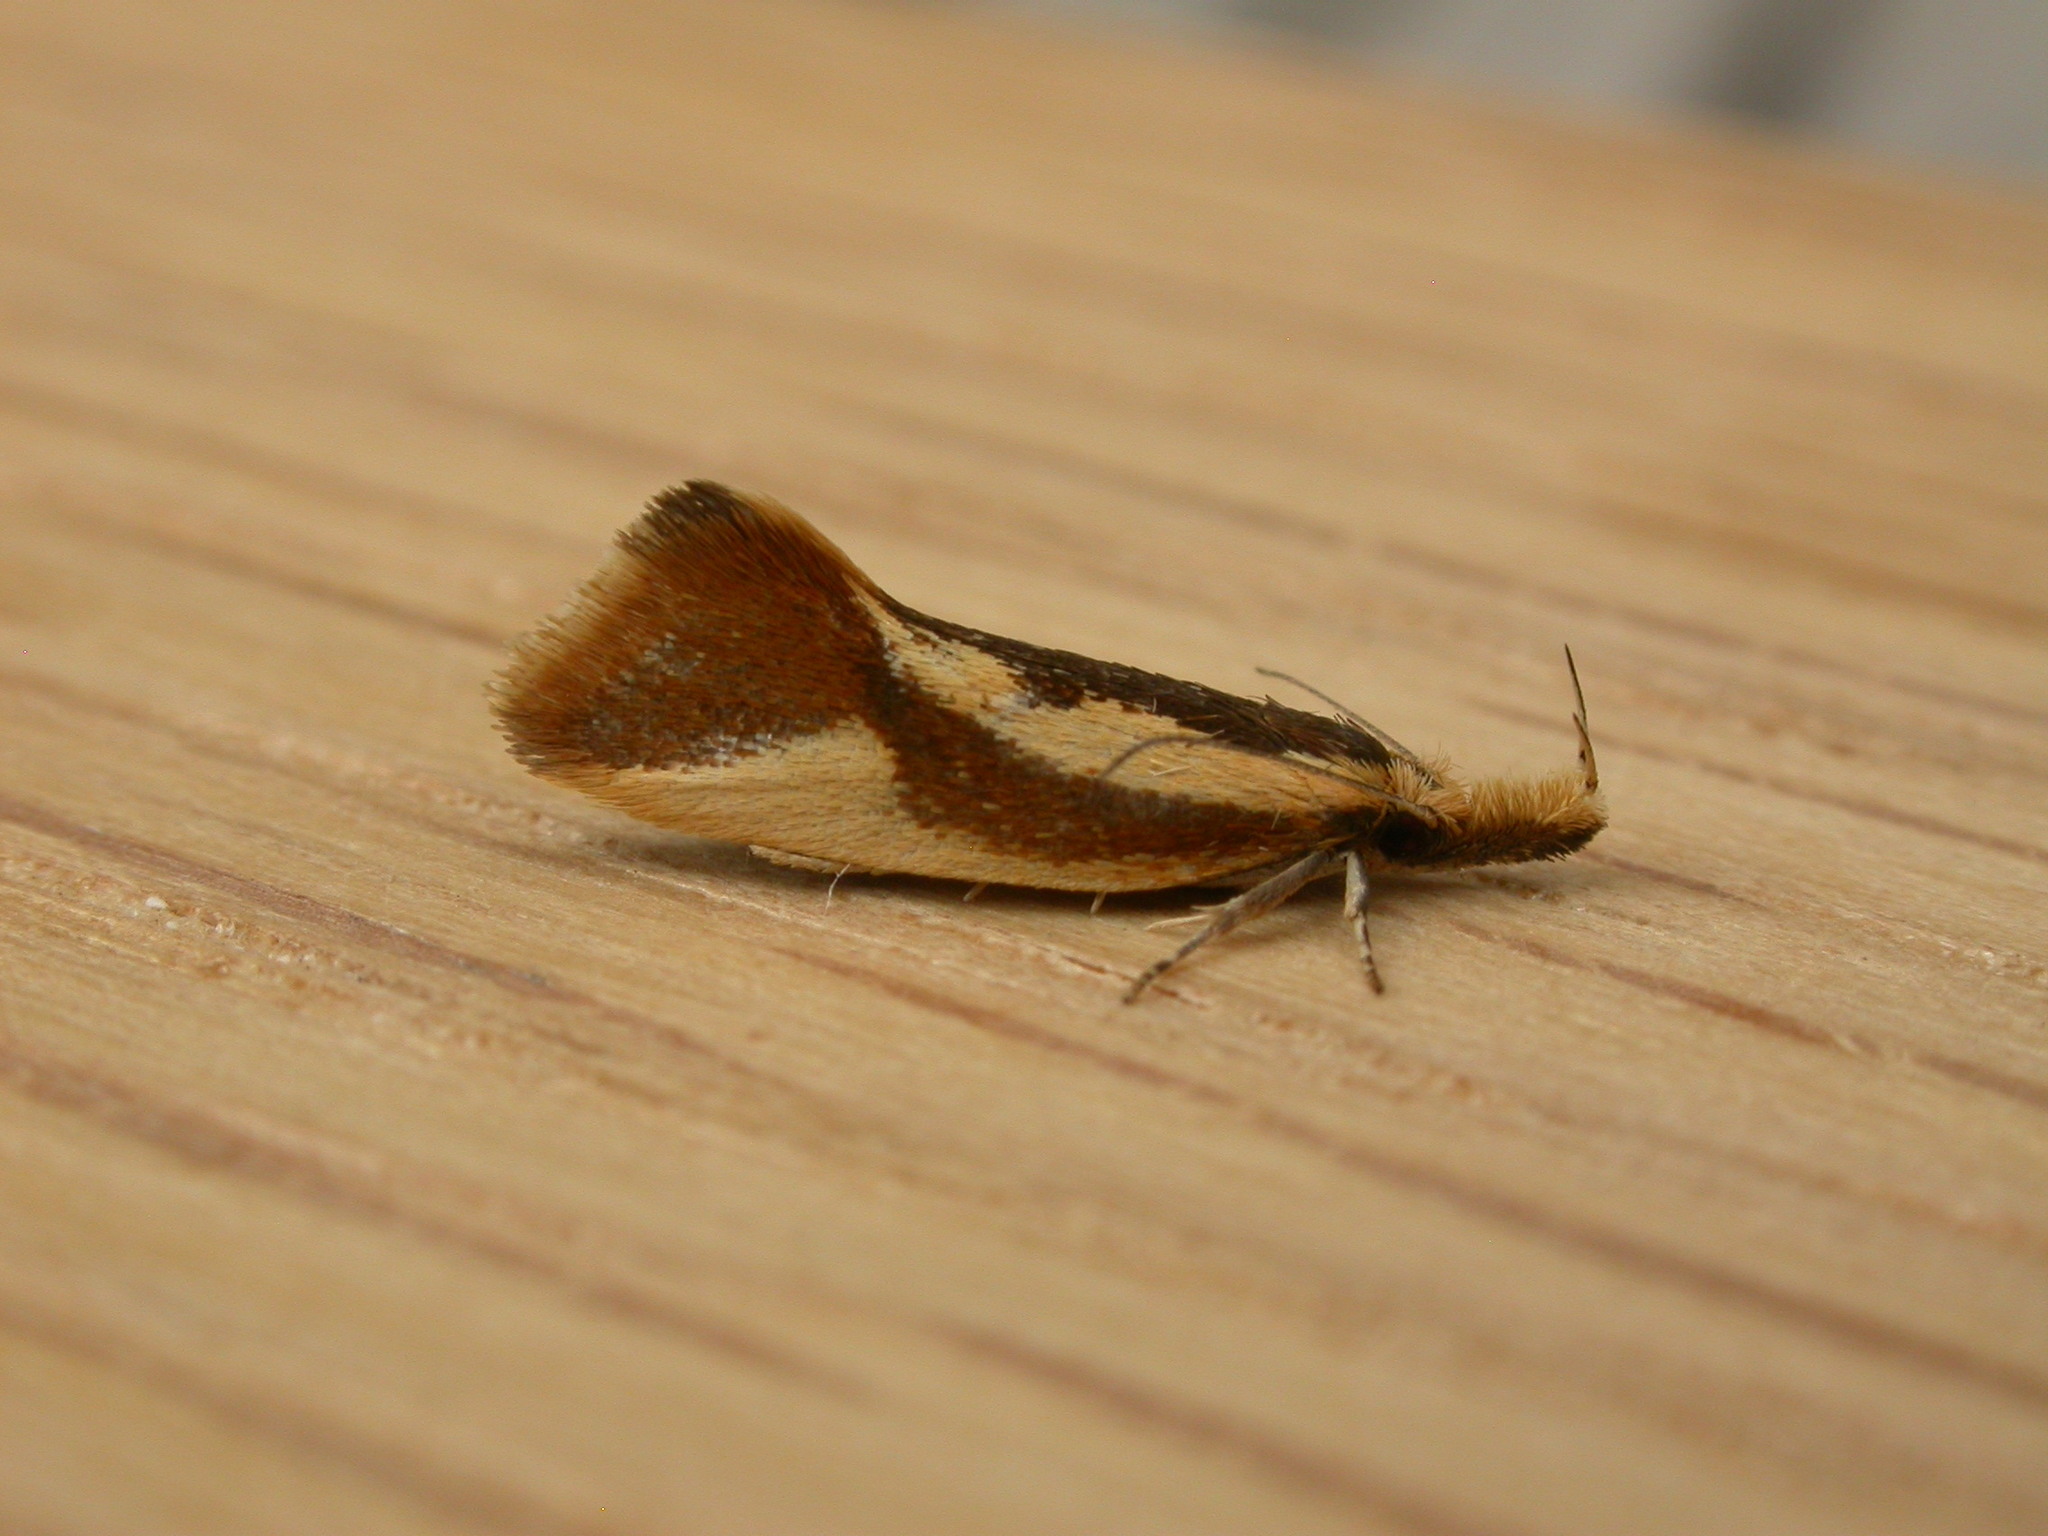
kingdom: Animalia
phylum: Arthropoda
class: Insecta
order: Lepidoptera
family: Oecophoridae
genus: Thema
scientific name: Thema psammoxantha
